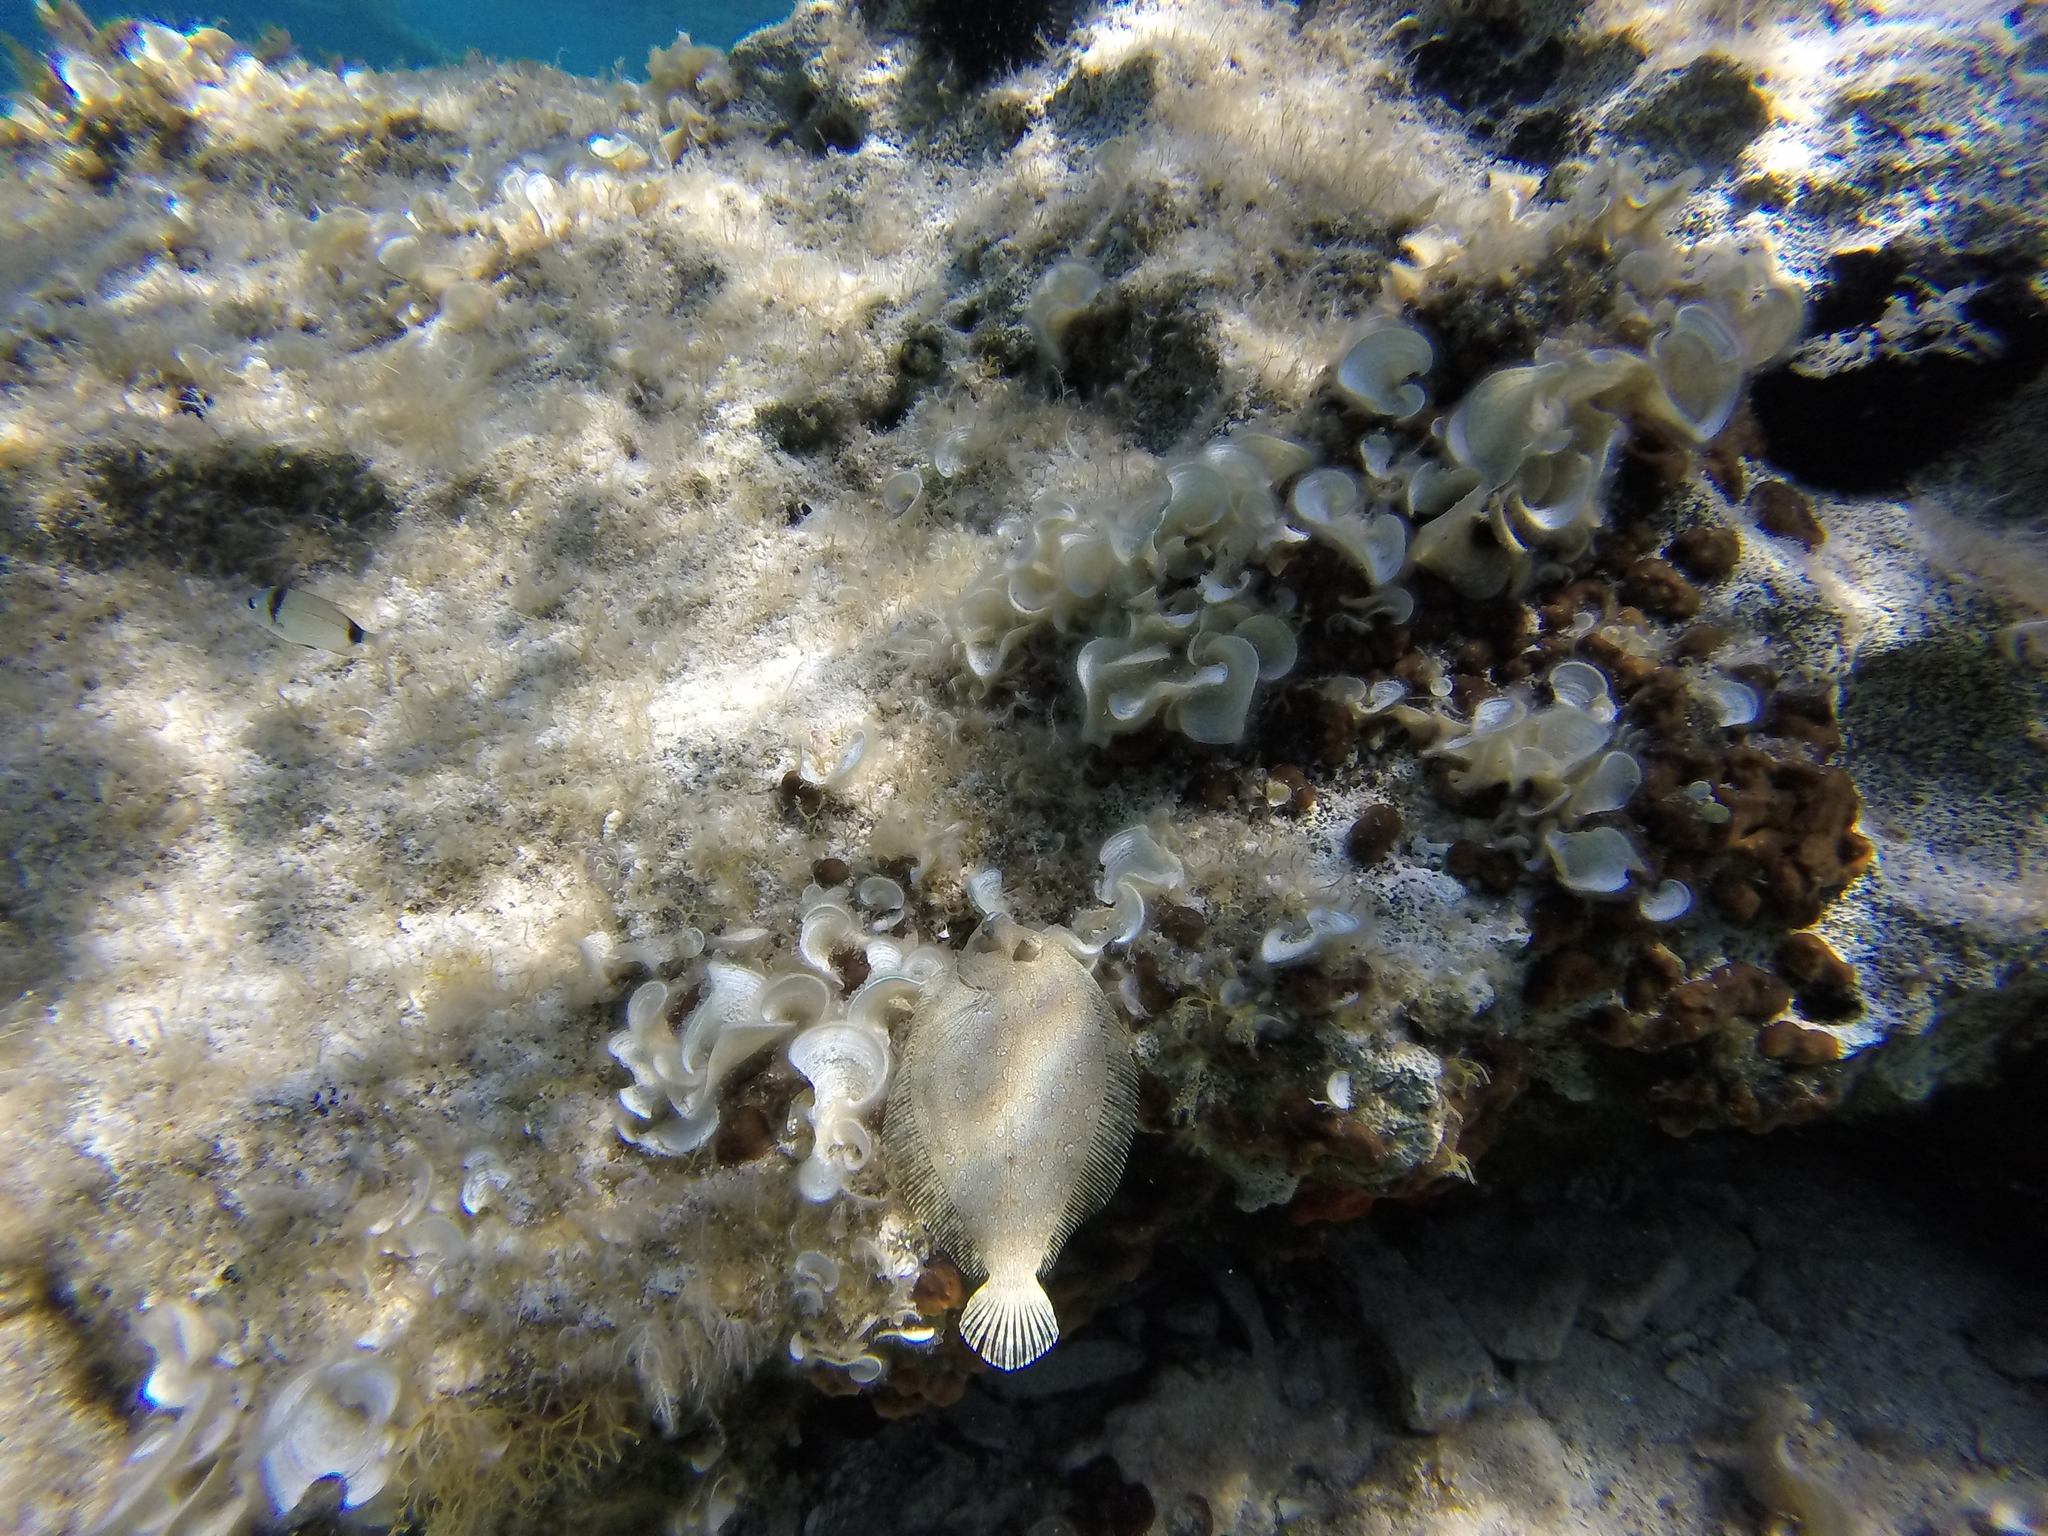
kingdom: Animalia
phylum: Chordata
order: Pleuronectiformes
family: Bothidae
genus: Bothus
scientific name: Bothus podas
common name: Wide-eyed flounder
